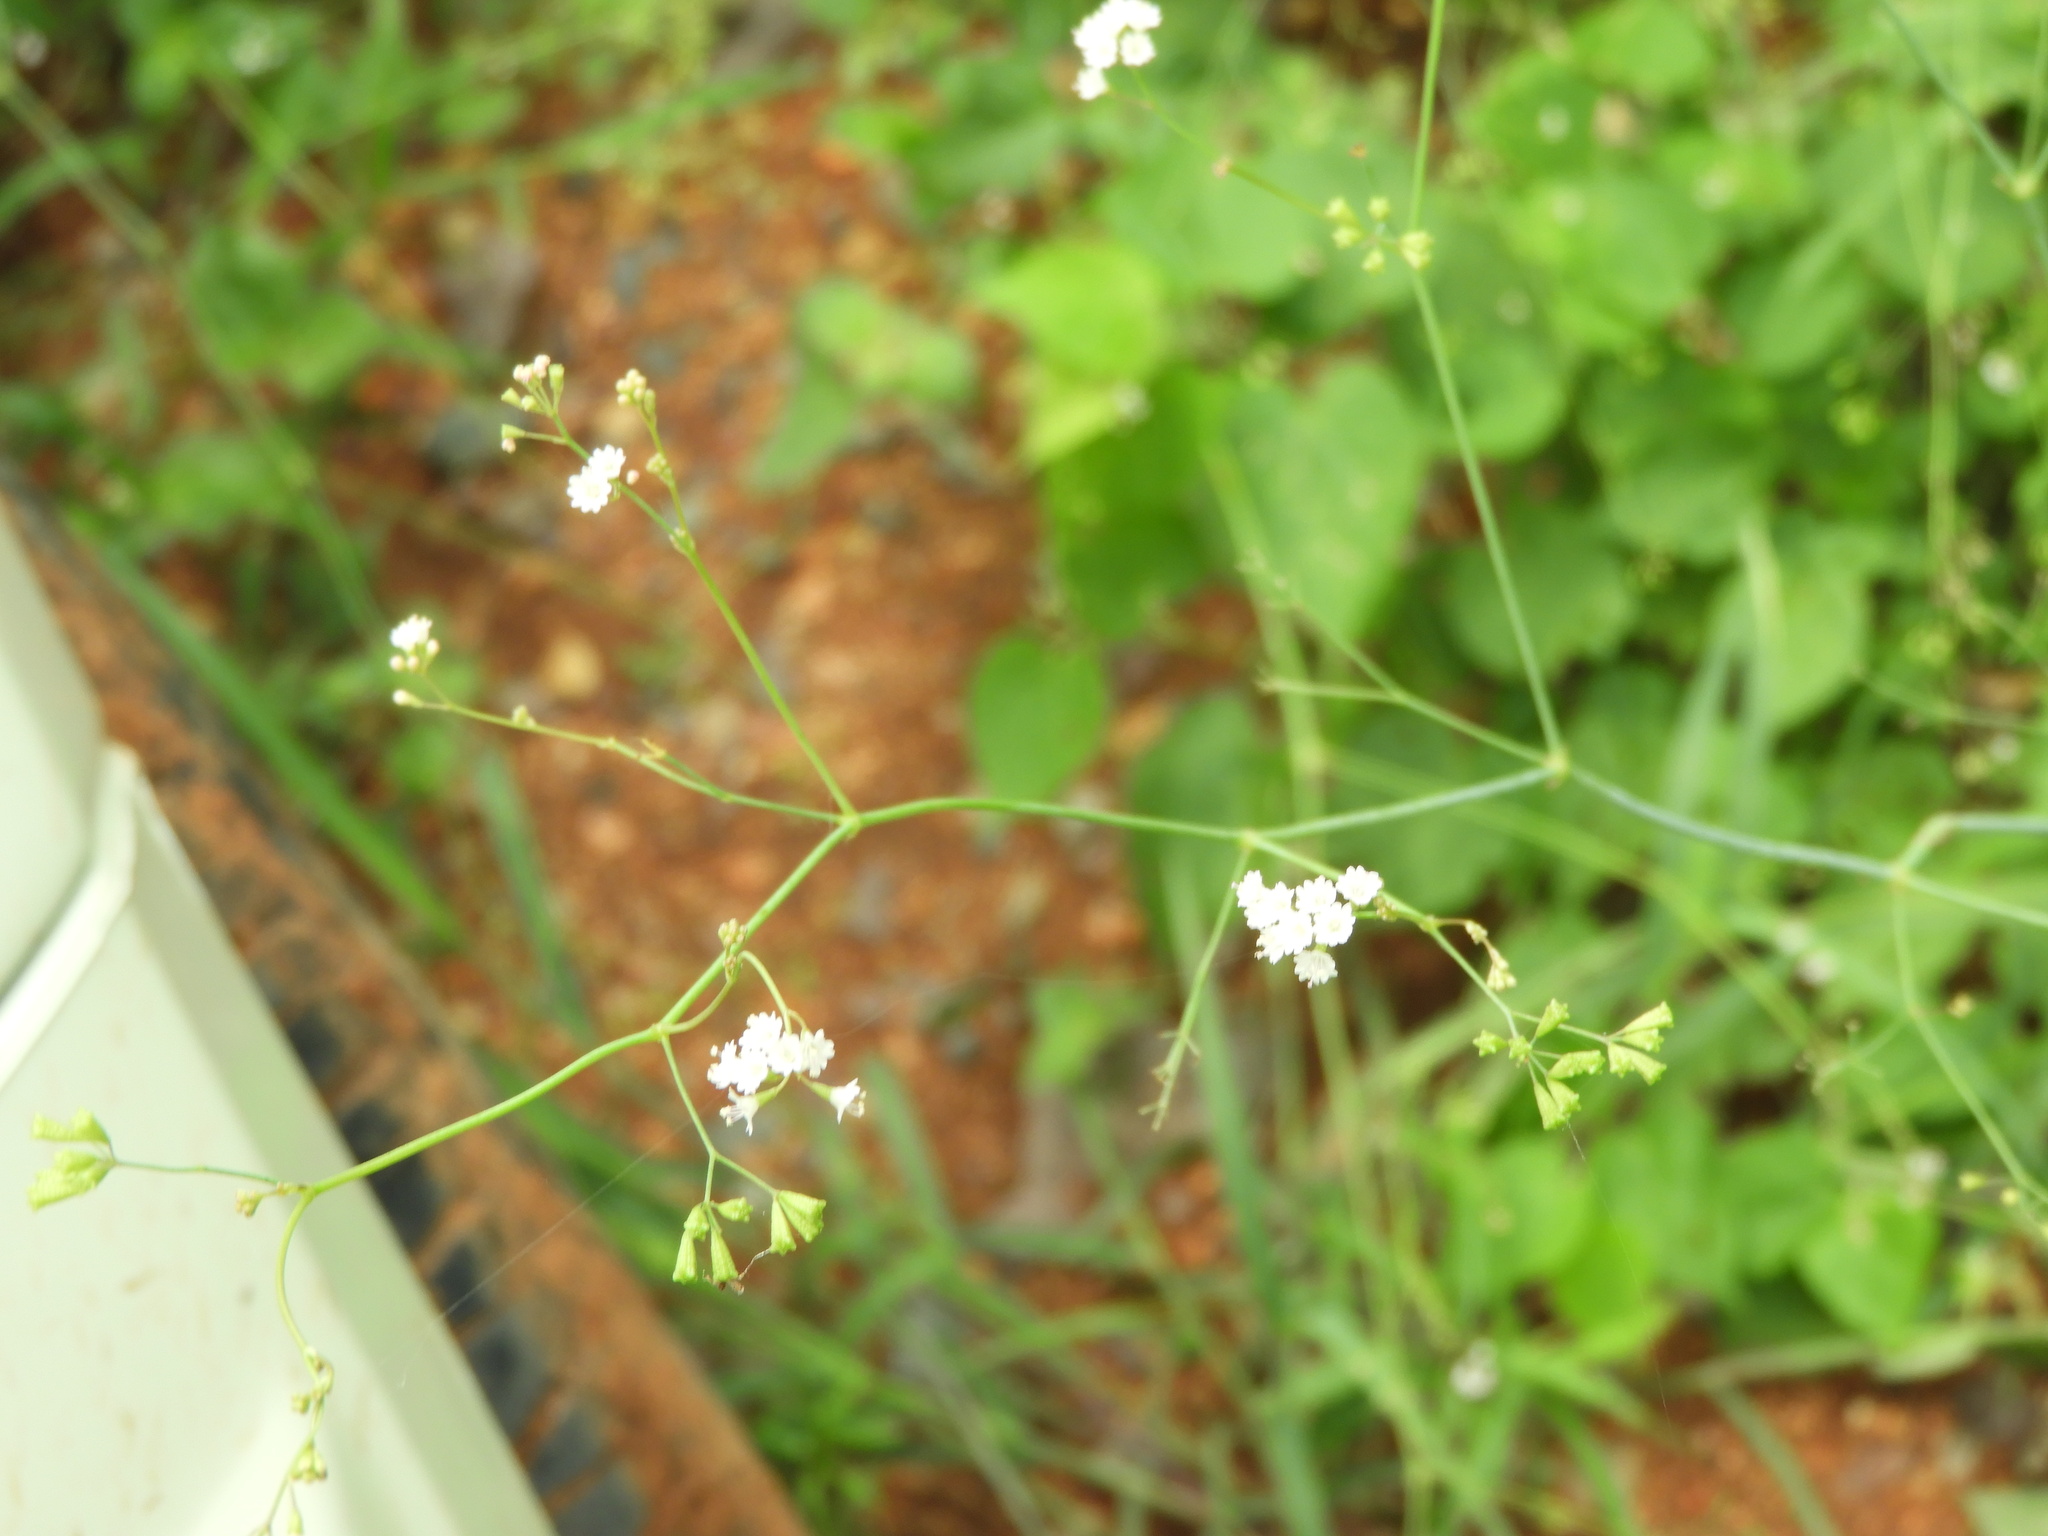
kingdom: Plantae
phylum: Tracheophyta
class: Magnoliopsida
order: Caryophyllales
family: Nyctaginaceae
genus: Boerhavia
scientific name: Boerhavia erecta
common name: Erect spiderling
